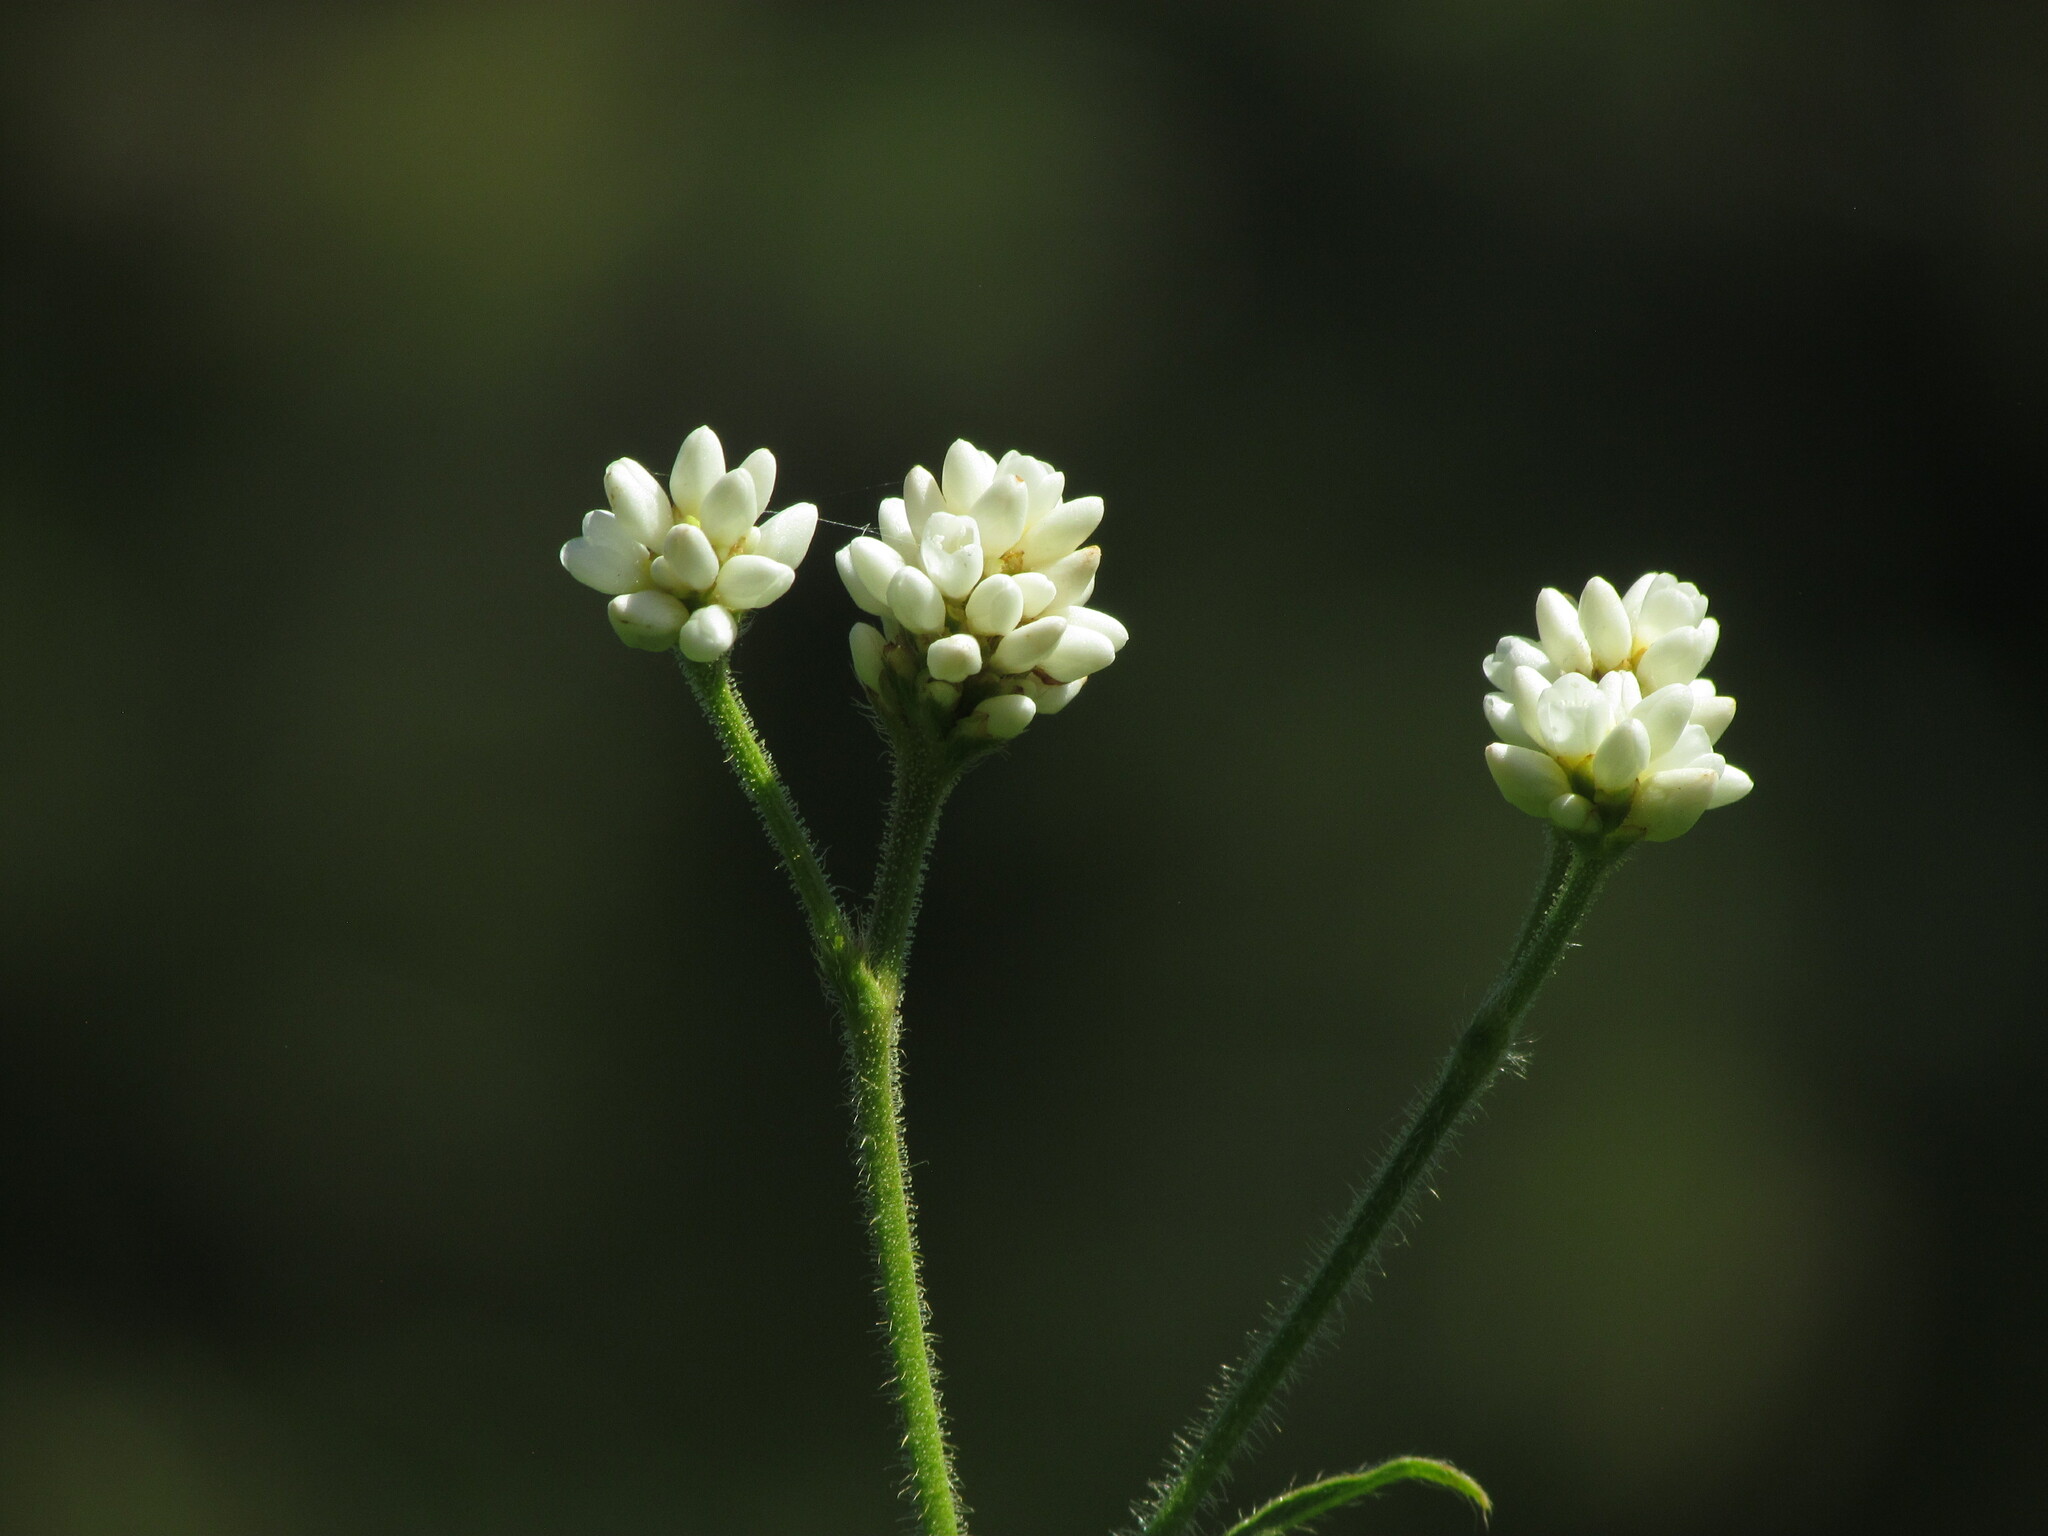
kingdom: Plantae
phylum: Tracheophyta
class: Magnoliopsida
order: Caryophyllales
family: Polygonaceae
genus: Persicaria
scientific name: Persicaria stelligera
